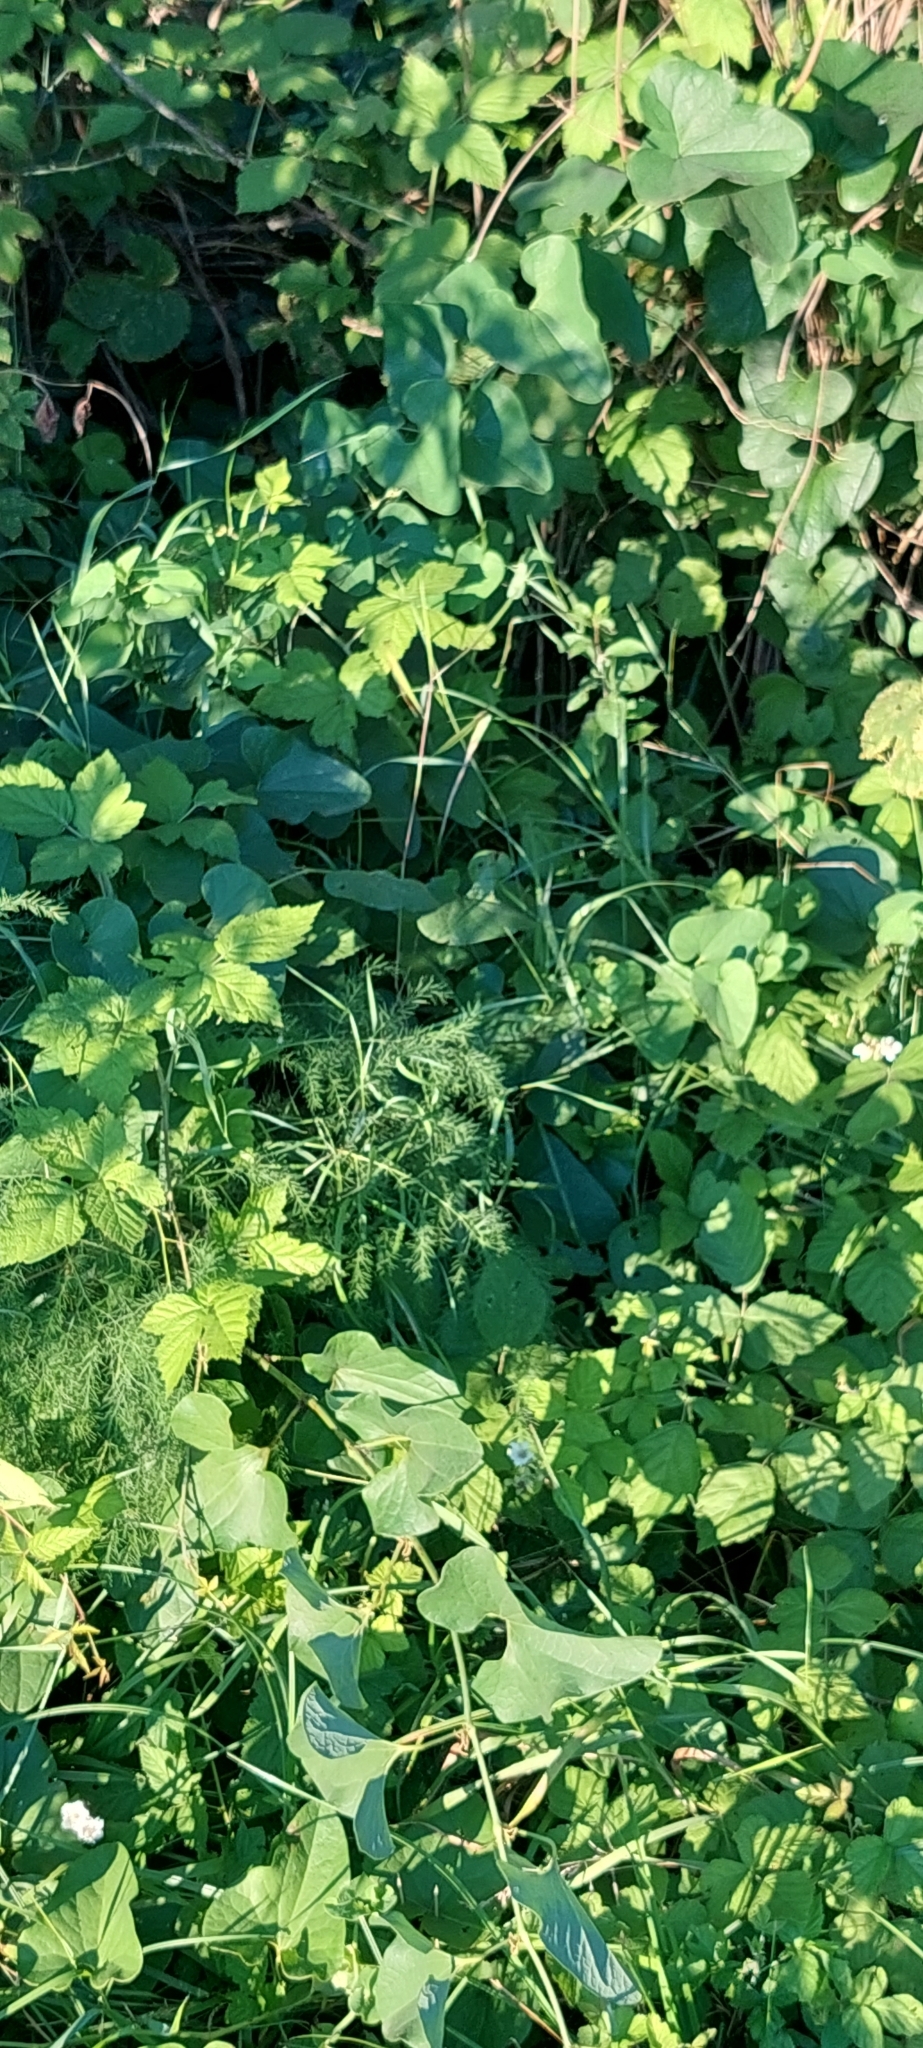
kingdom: Plantae
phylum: Tracheophyta
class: Magnoliopsida
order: Piperales
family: Aristolochiaceae
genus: Aristolochia
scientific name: Aristolochia clematitis
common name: Birthwort
